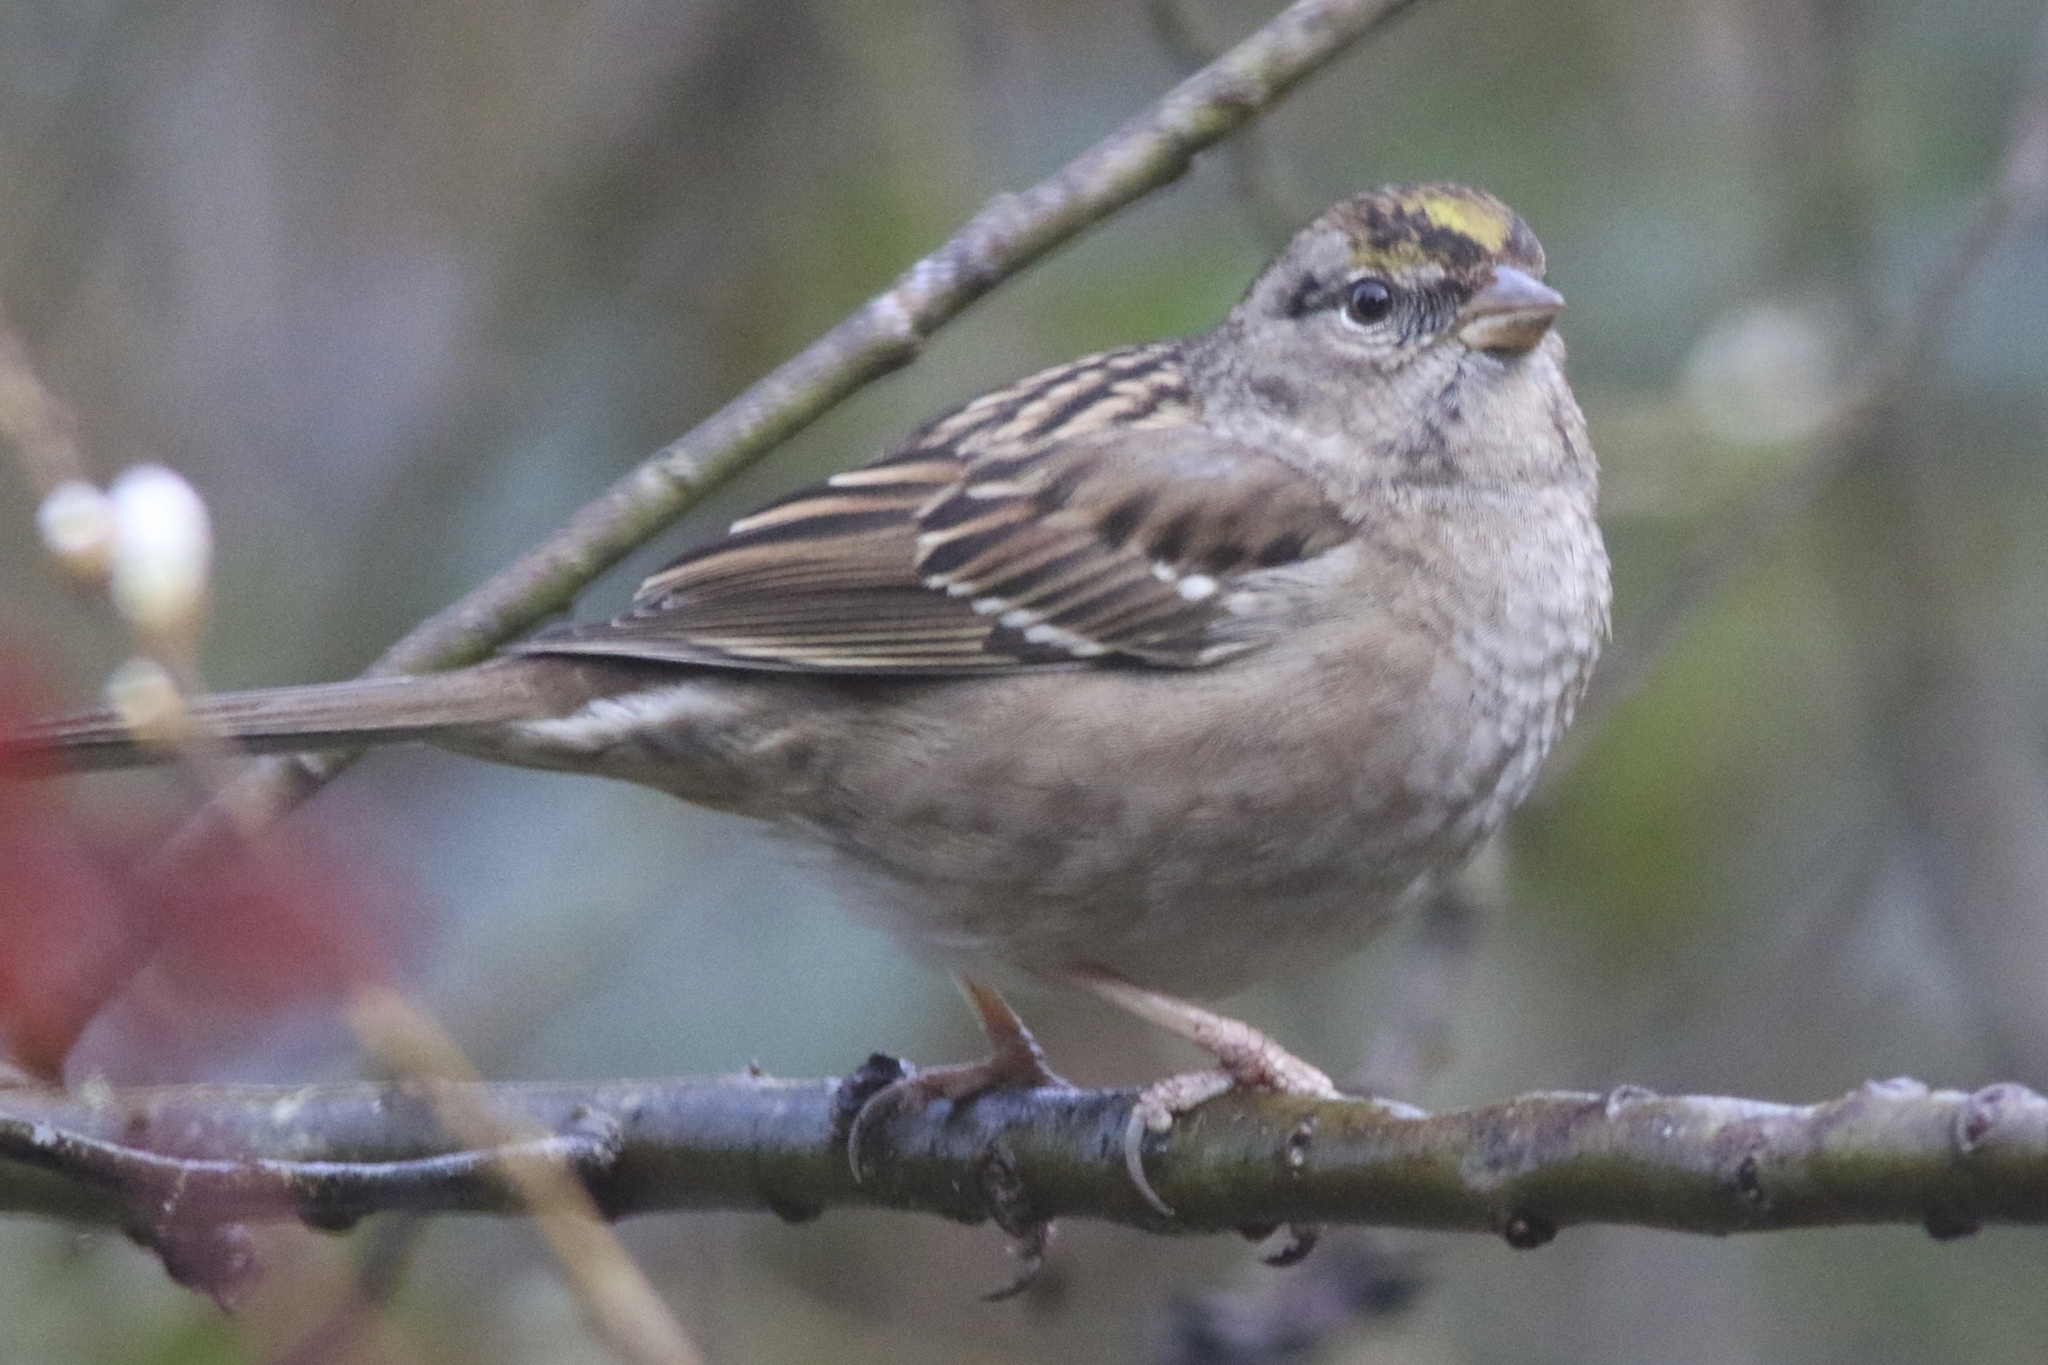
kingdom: Animalia
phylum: Chordata
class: Aves
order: Passeriformes
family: Passerellidae
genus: Zonotrichia
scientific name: Zonotrichia atricapilla
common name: Golden-crowned sparrow
